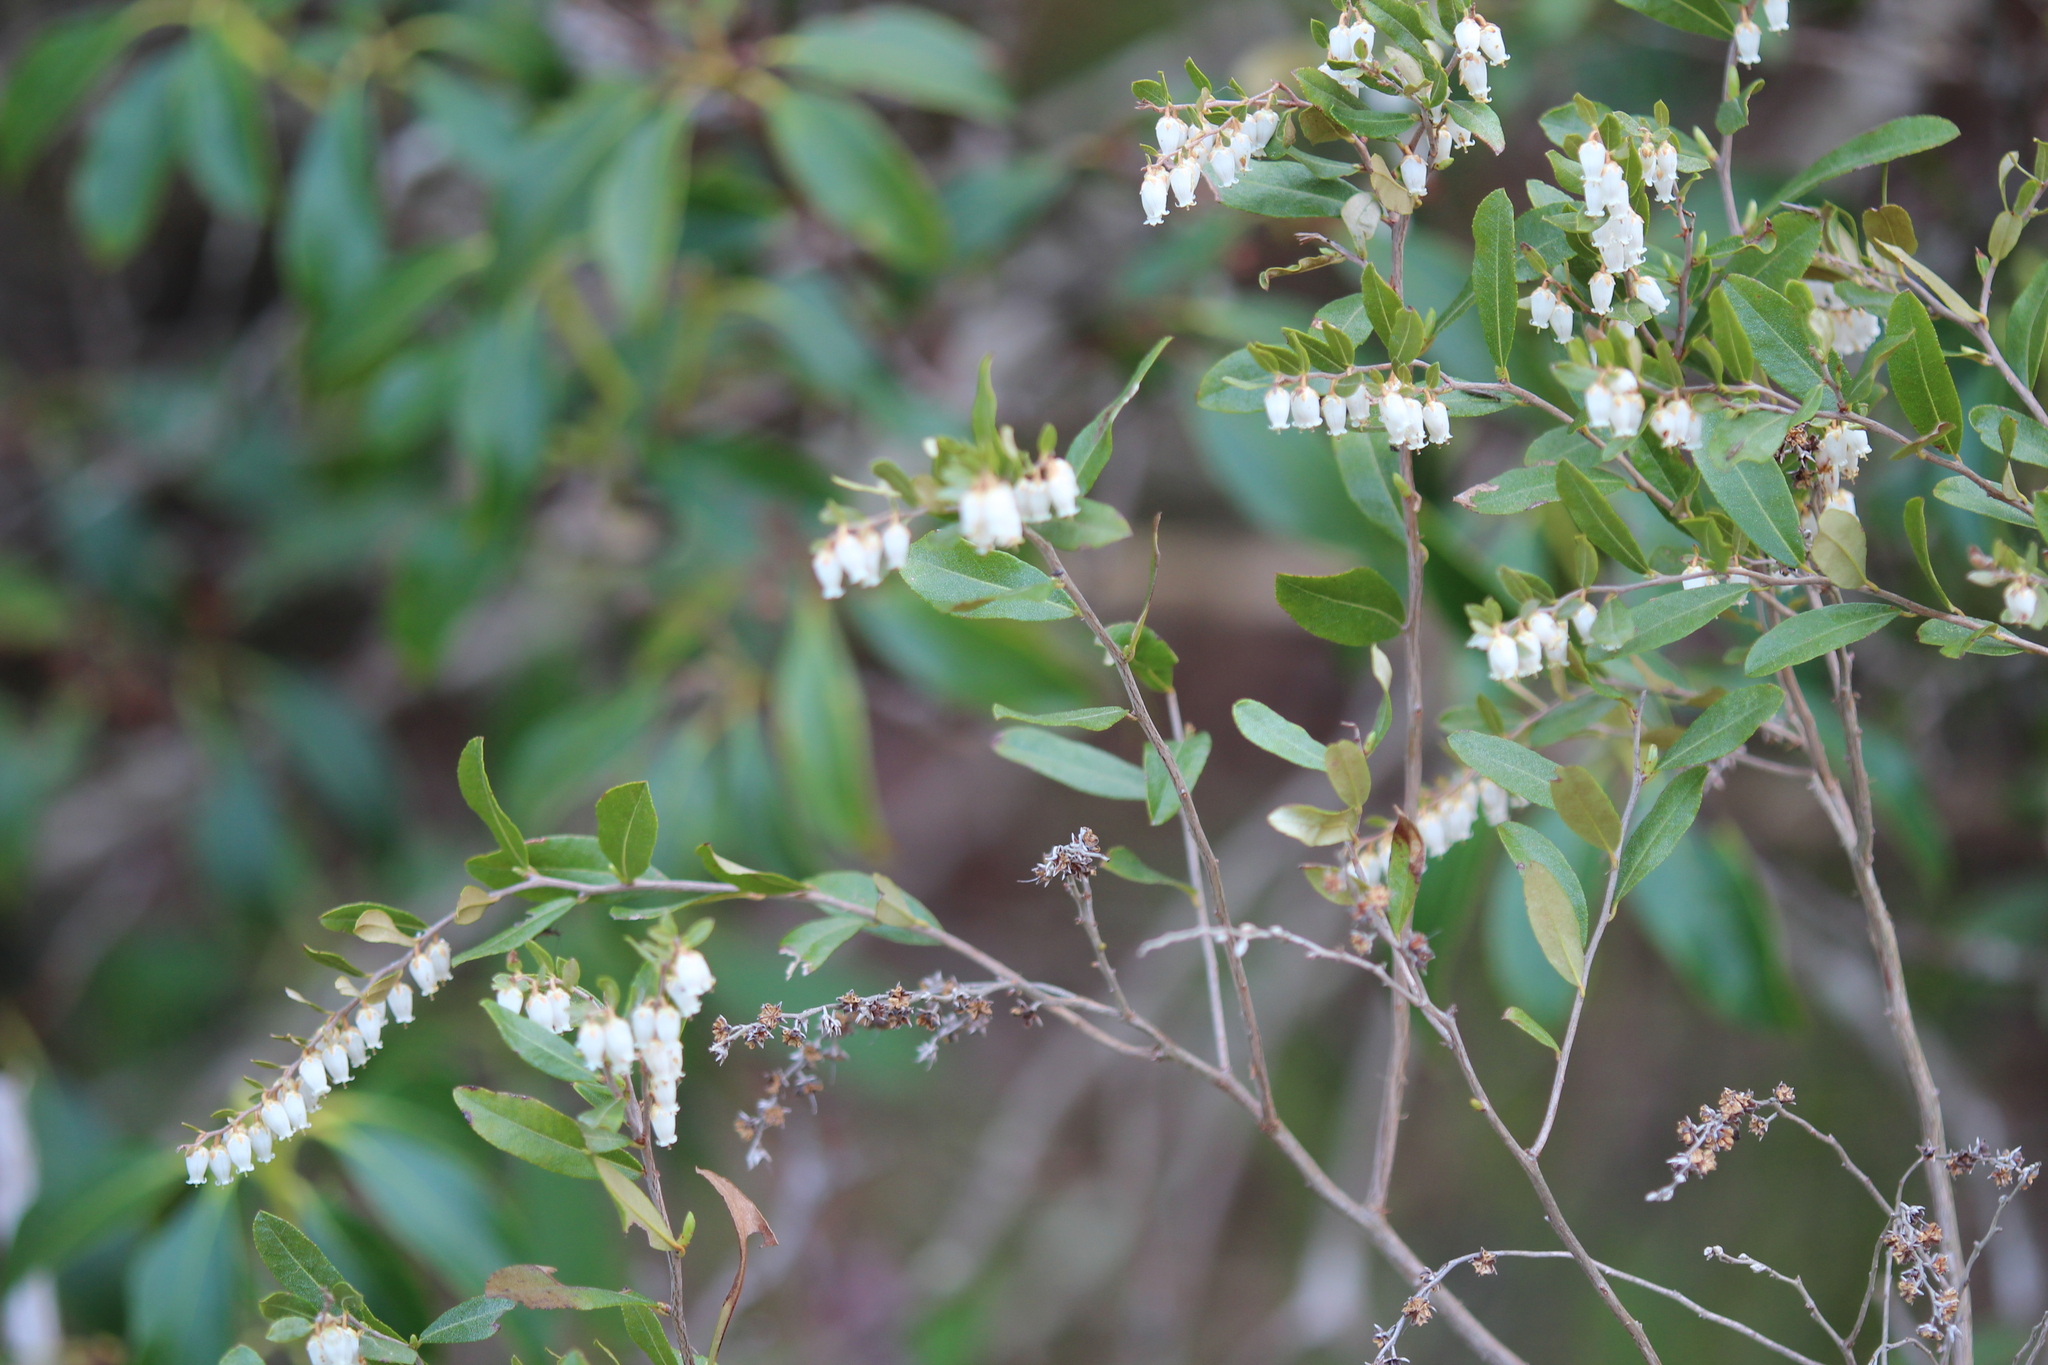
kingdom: Plantae
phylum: Tracheophyta
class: Magnoliopsida
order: Ericales
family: Ericaceae
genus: Chamaedaphne
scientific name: Chamaedaphne calyculata
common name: Leatherleaf
